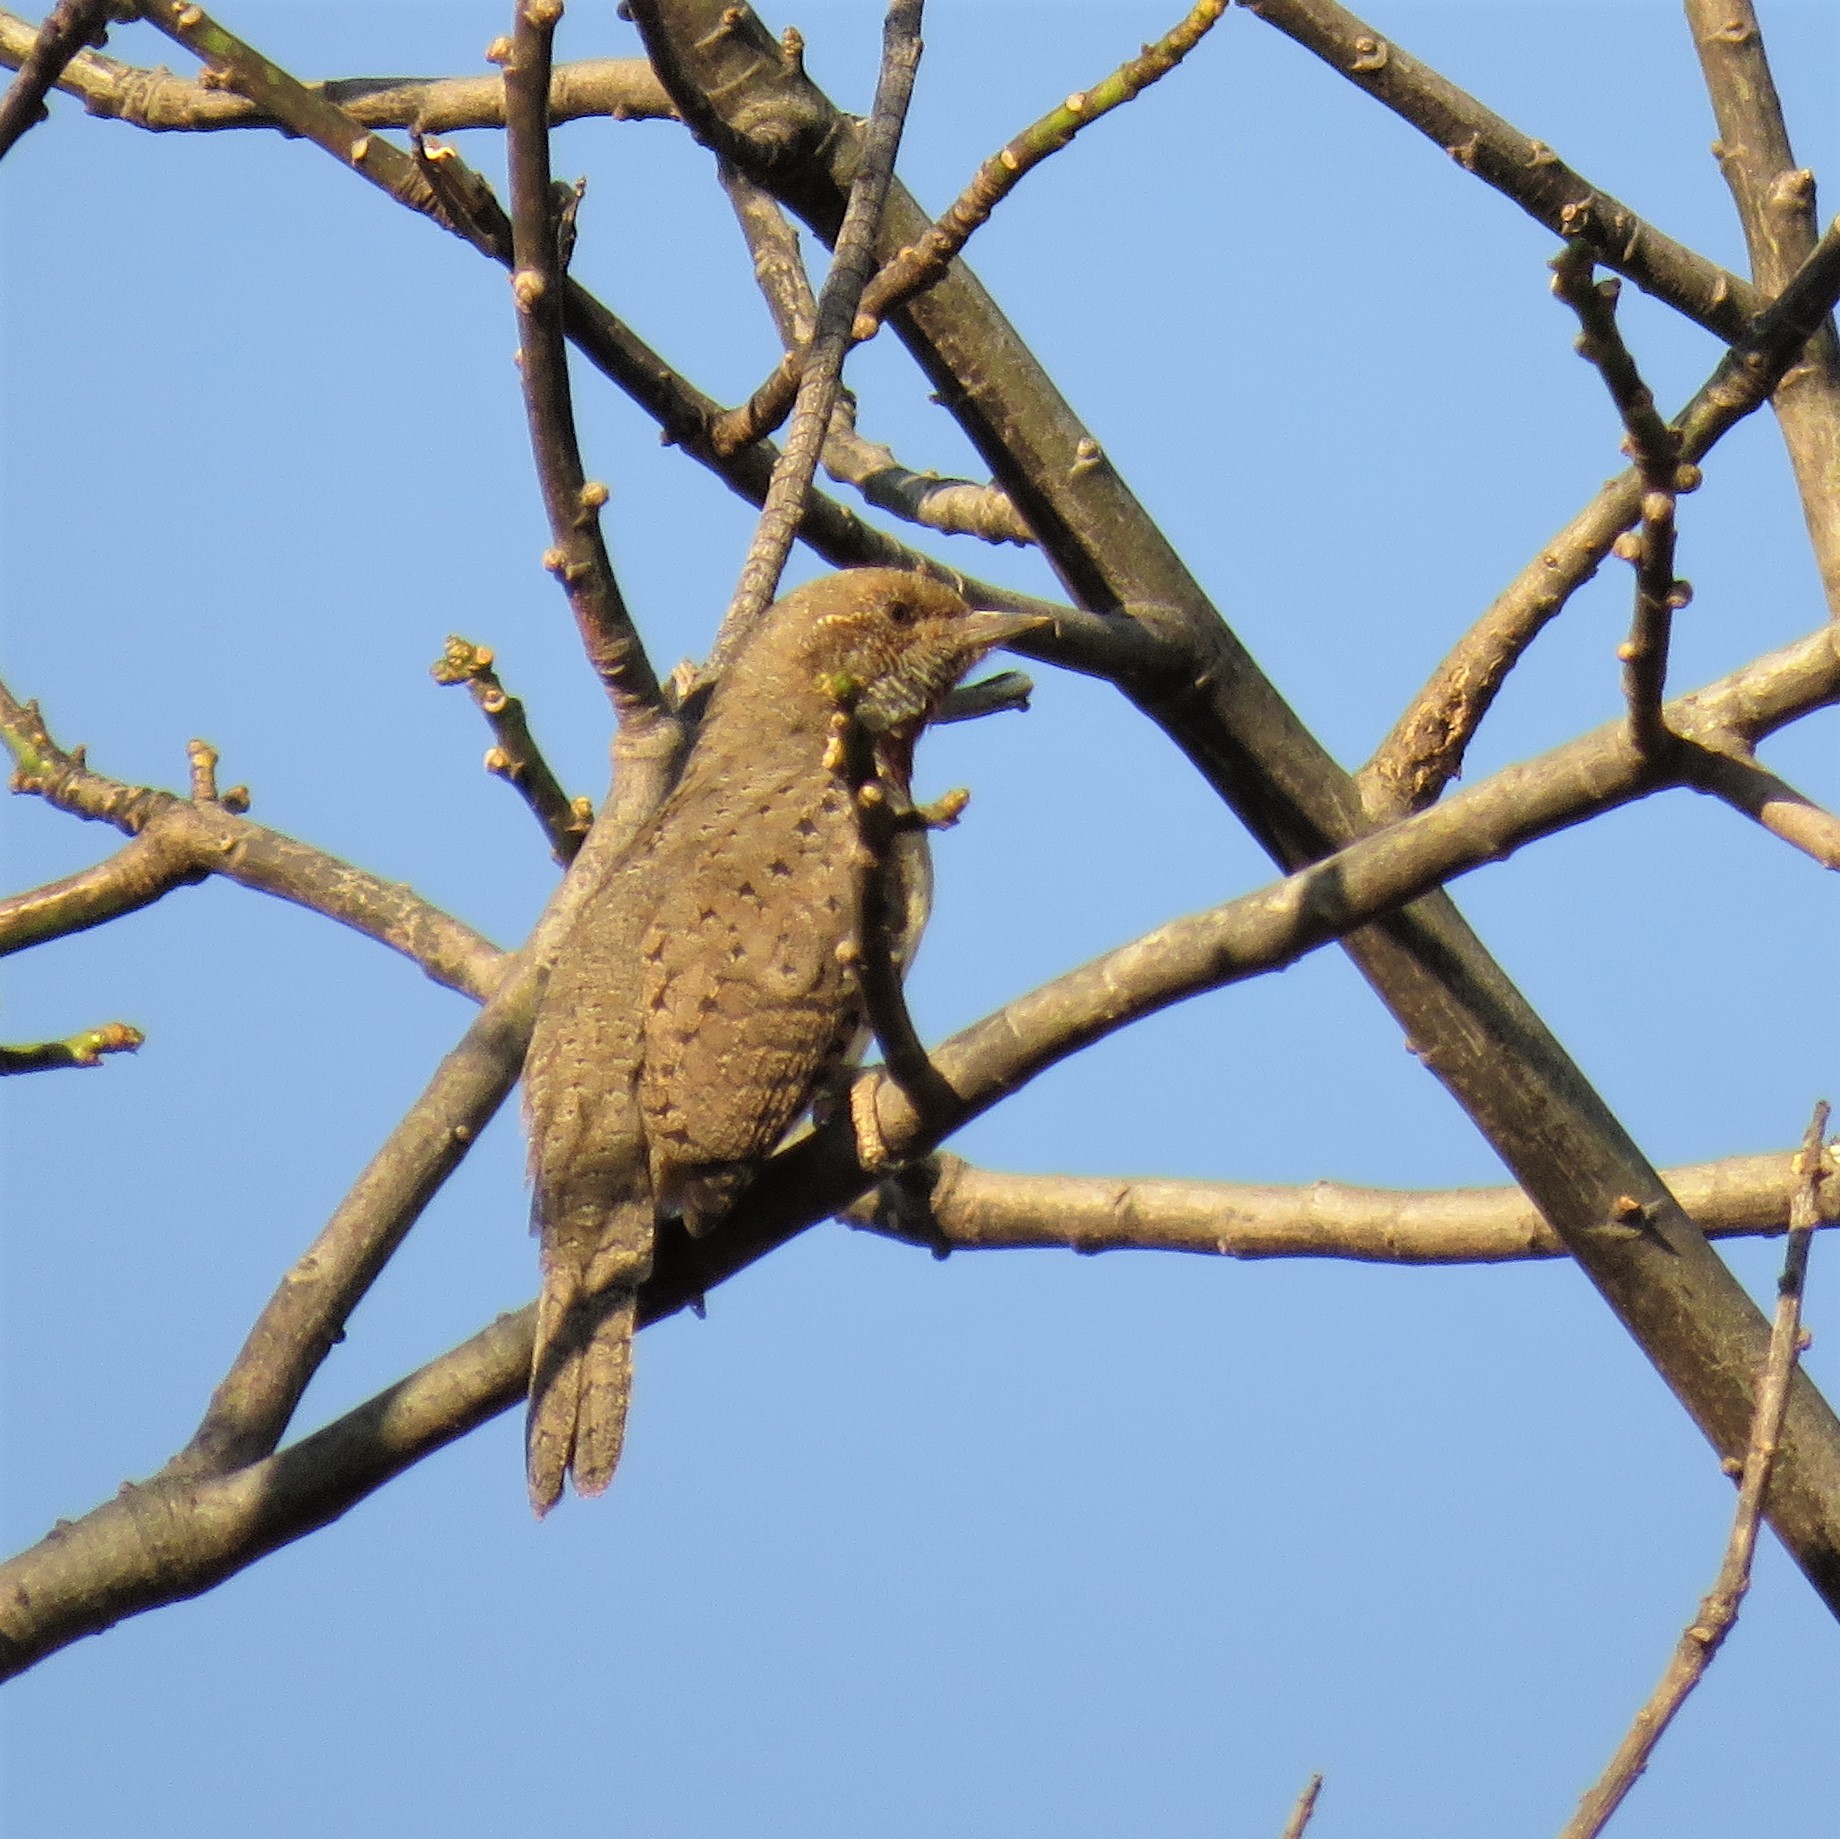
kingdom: Animalia
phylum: Chordata
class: Aves
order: Piciformes
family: Picidae
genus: Jynx
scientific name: Jynx ruficollis
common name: Red-throated wryneck
